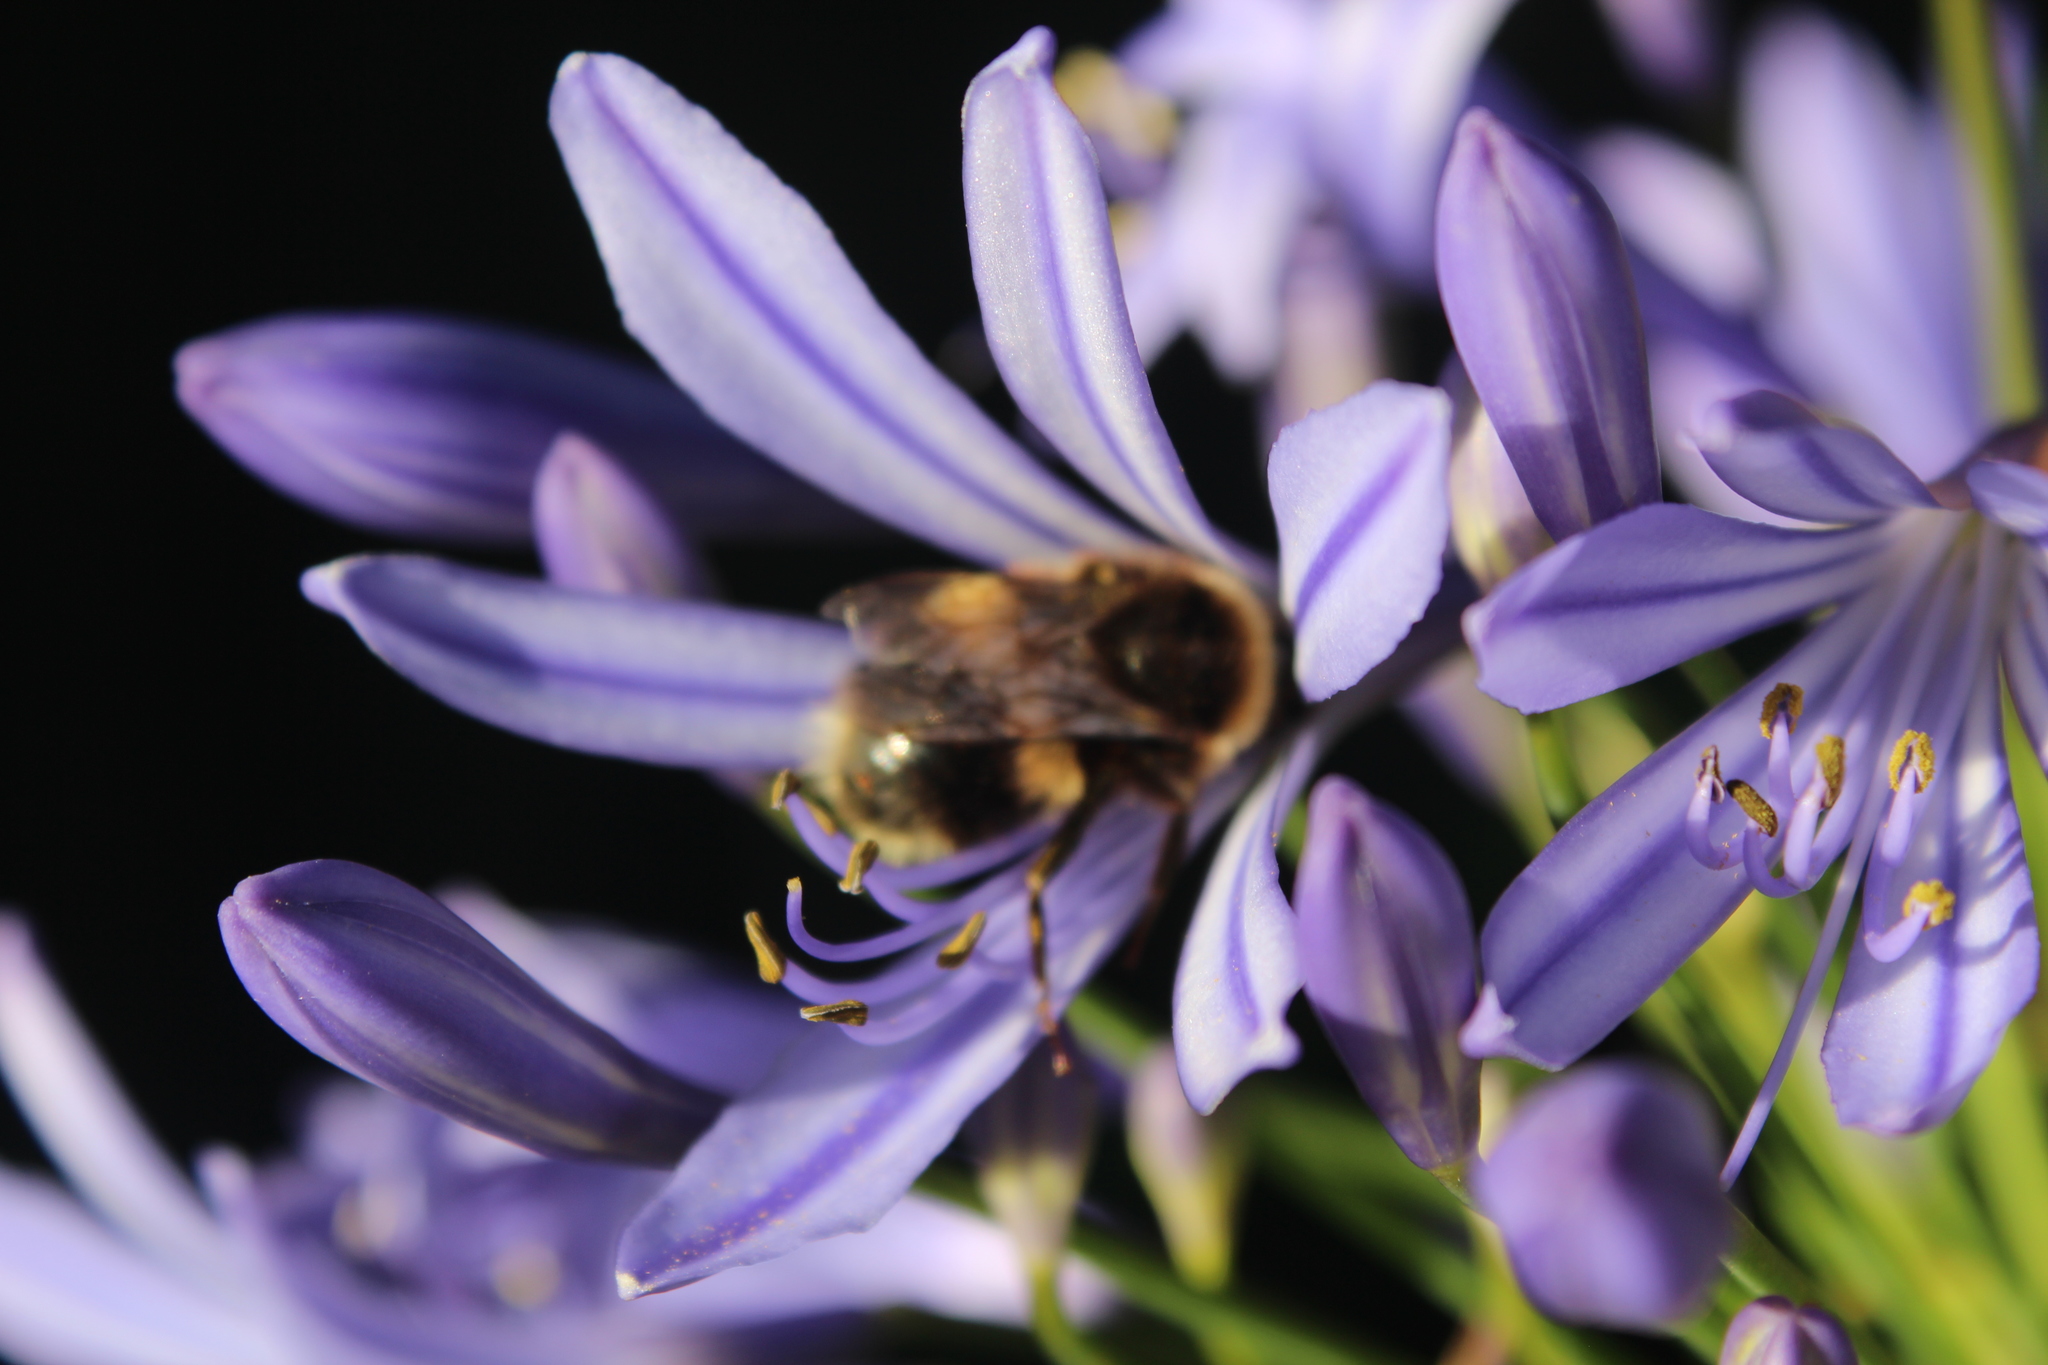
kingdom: Animalia
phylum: Arthropoda
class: Insecta
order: Hymenoptera
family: Apidae
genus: Bombus
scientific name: Bombus terrestris
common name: Buff-tailed bumblebee
